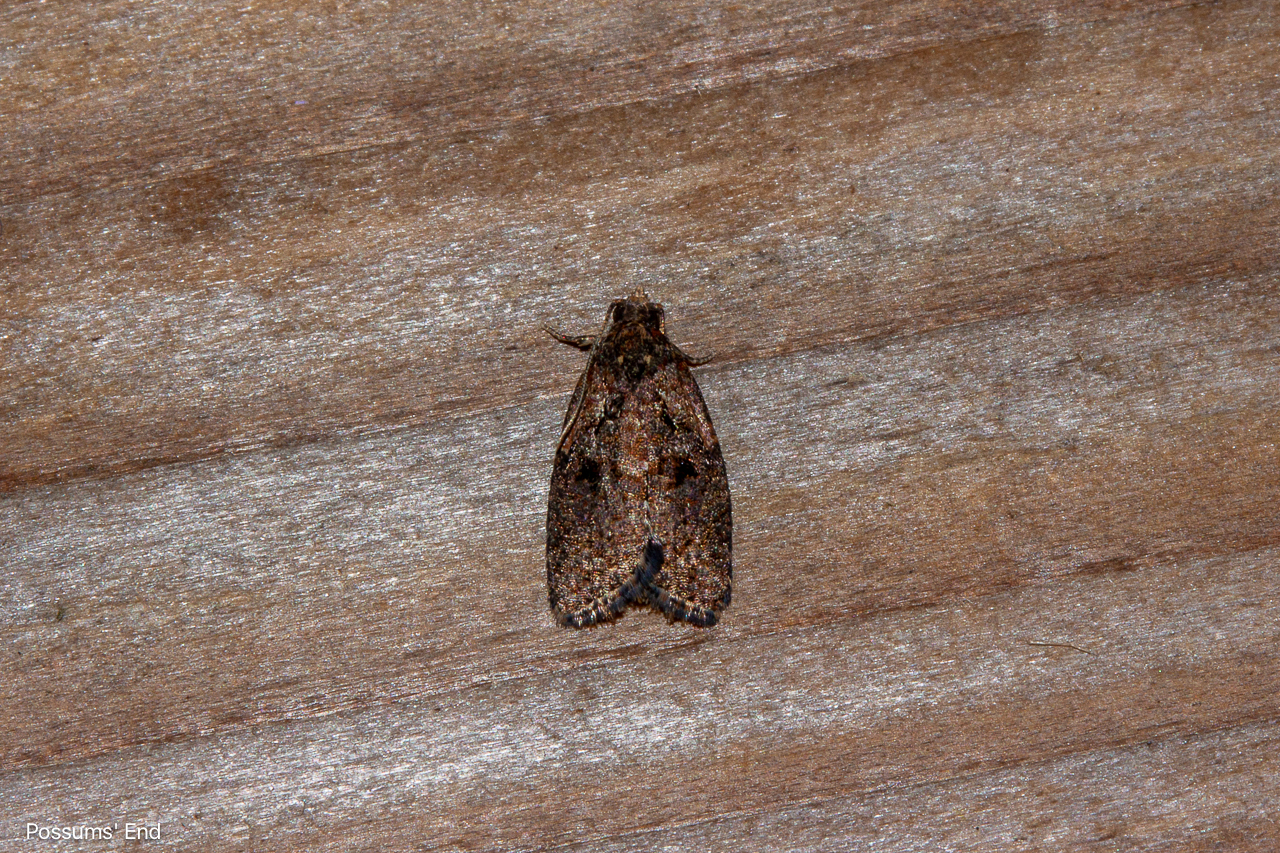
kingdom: Animalia
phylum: Arthropoda
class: Insecta
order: Lepidoptera
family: Tortricidae
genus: Capua
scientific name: Capua intractana
